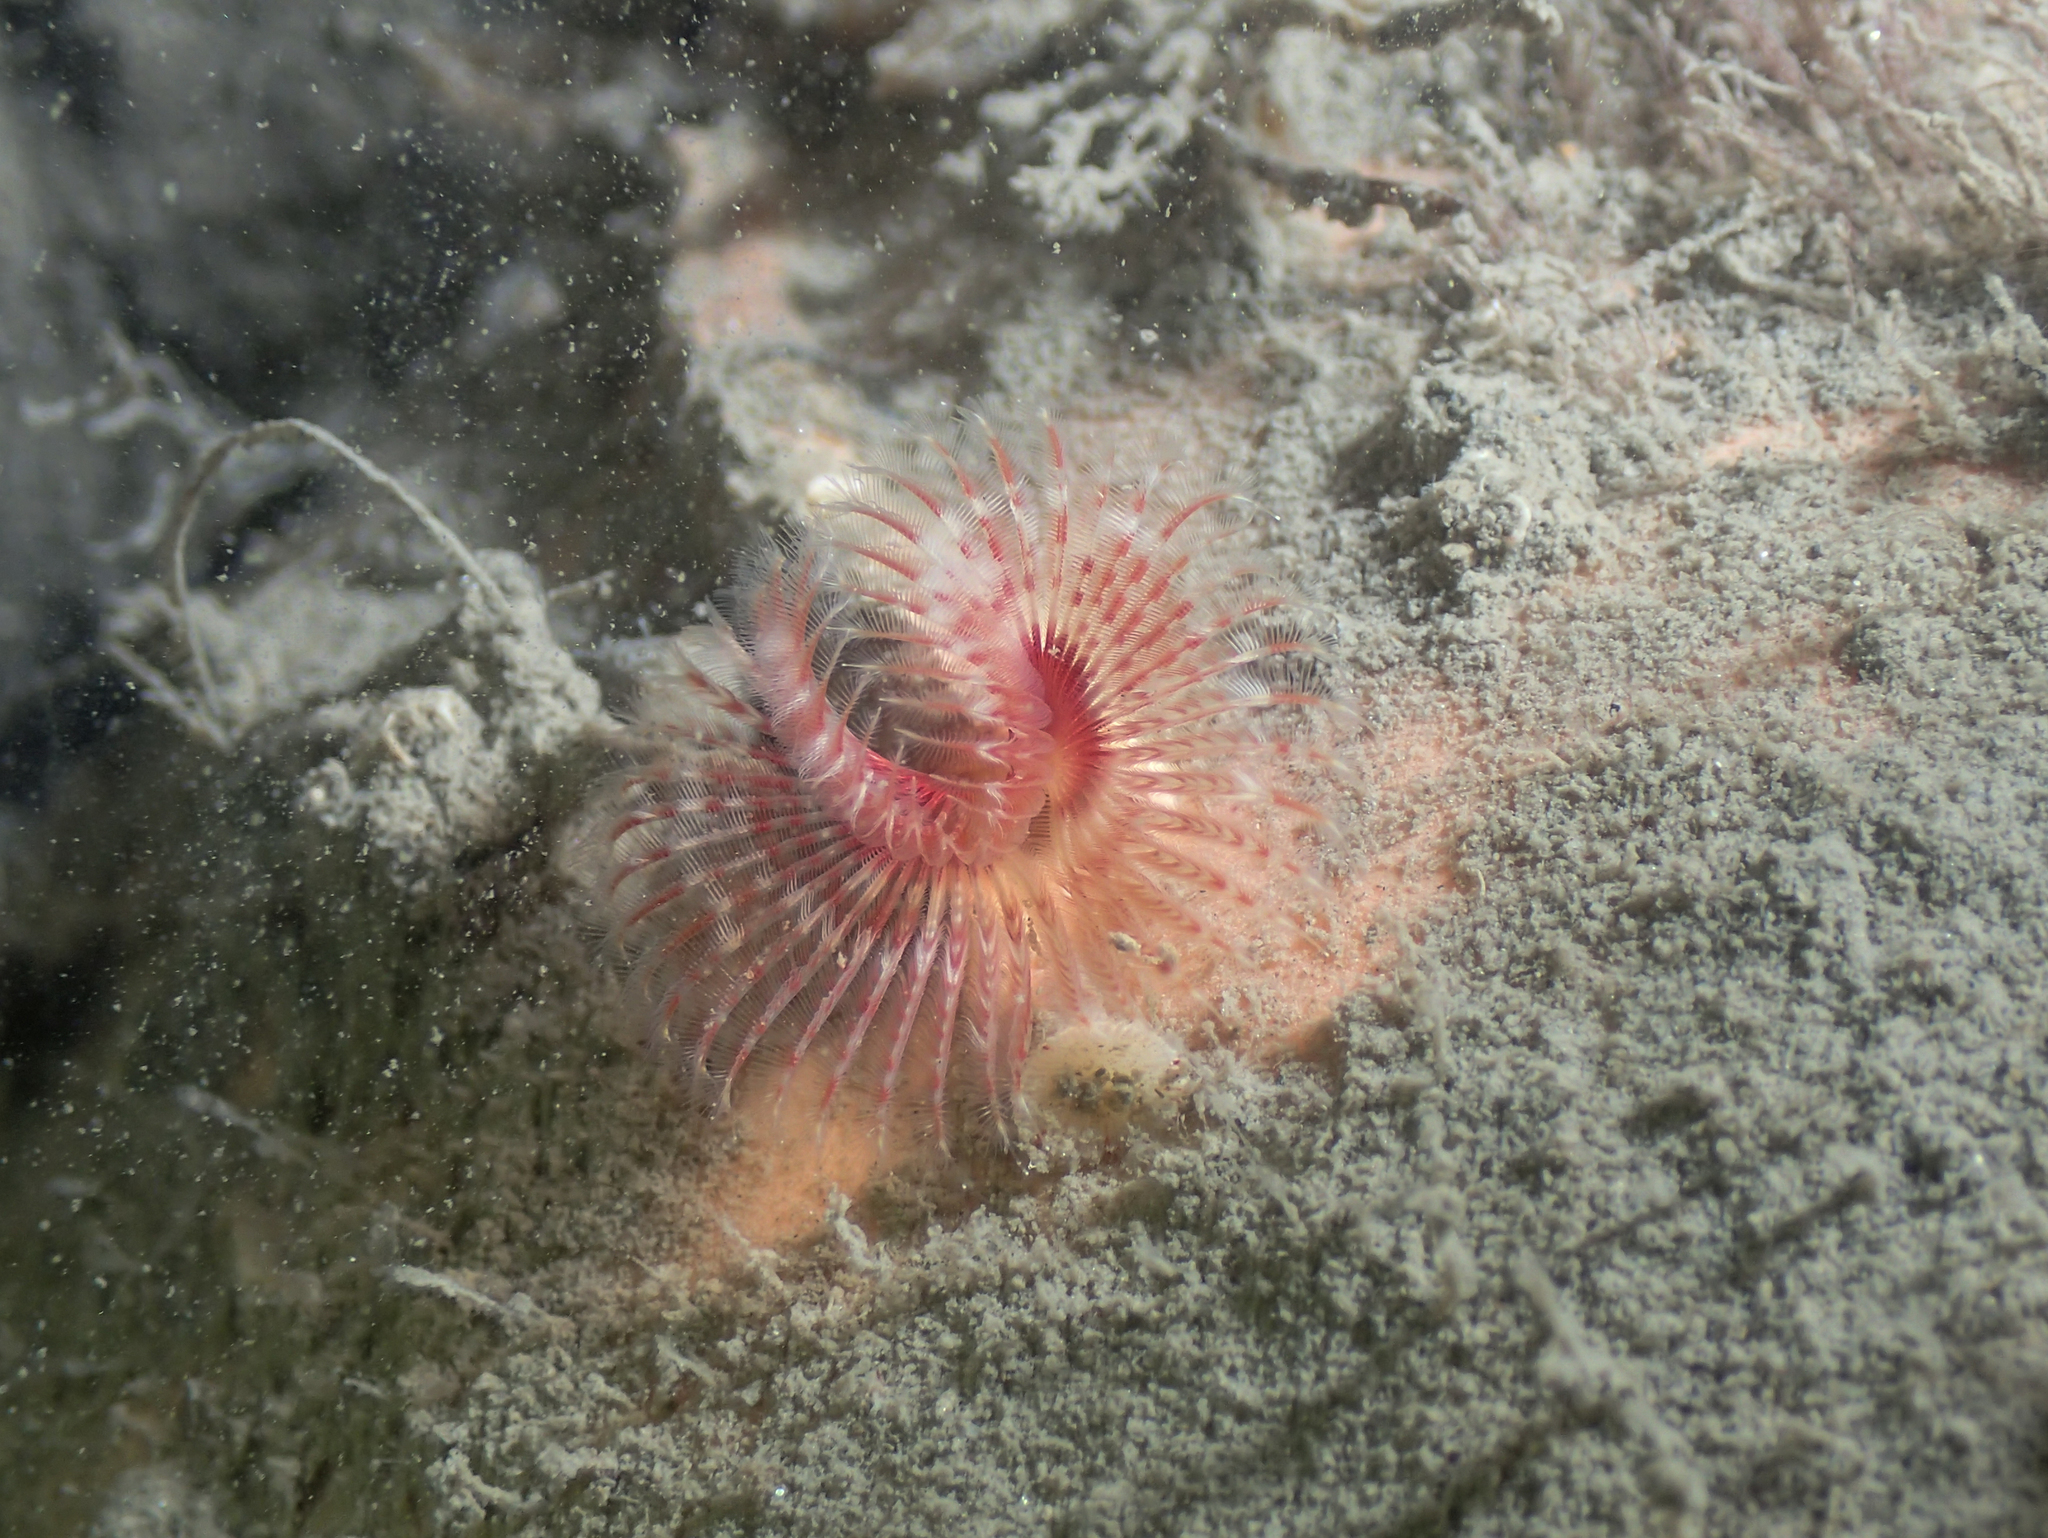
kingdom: Animalia
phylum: Annelida
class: Polychaeta
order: Sabellida
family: Serpulidae
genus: Serpula
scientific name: Serpula vermicularis
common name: Calcareous tubeworm
